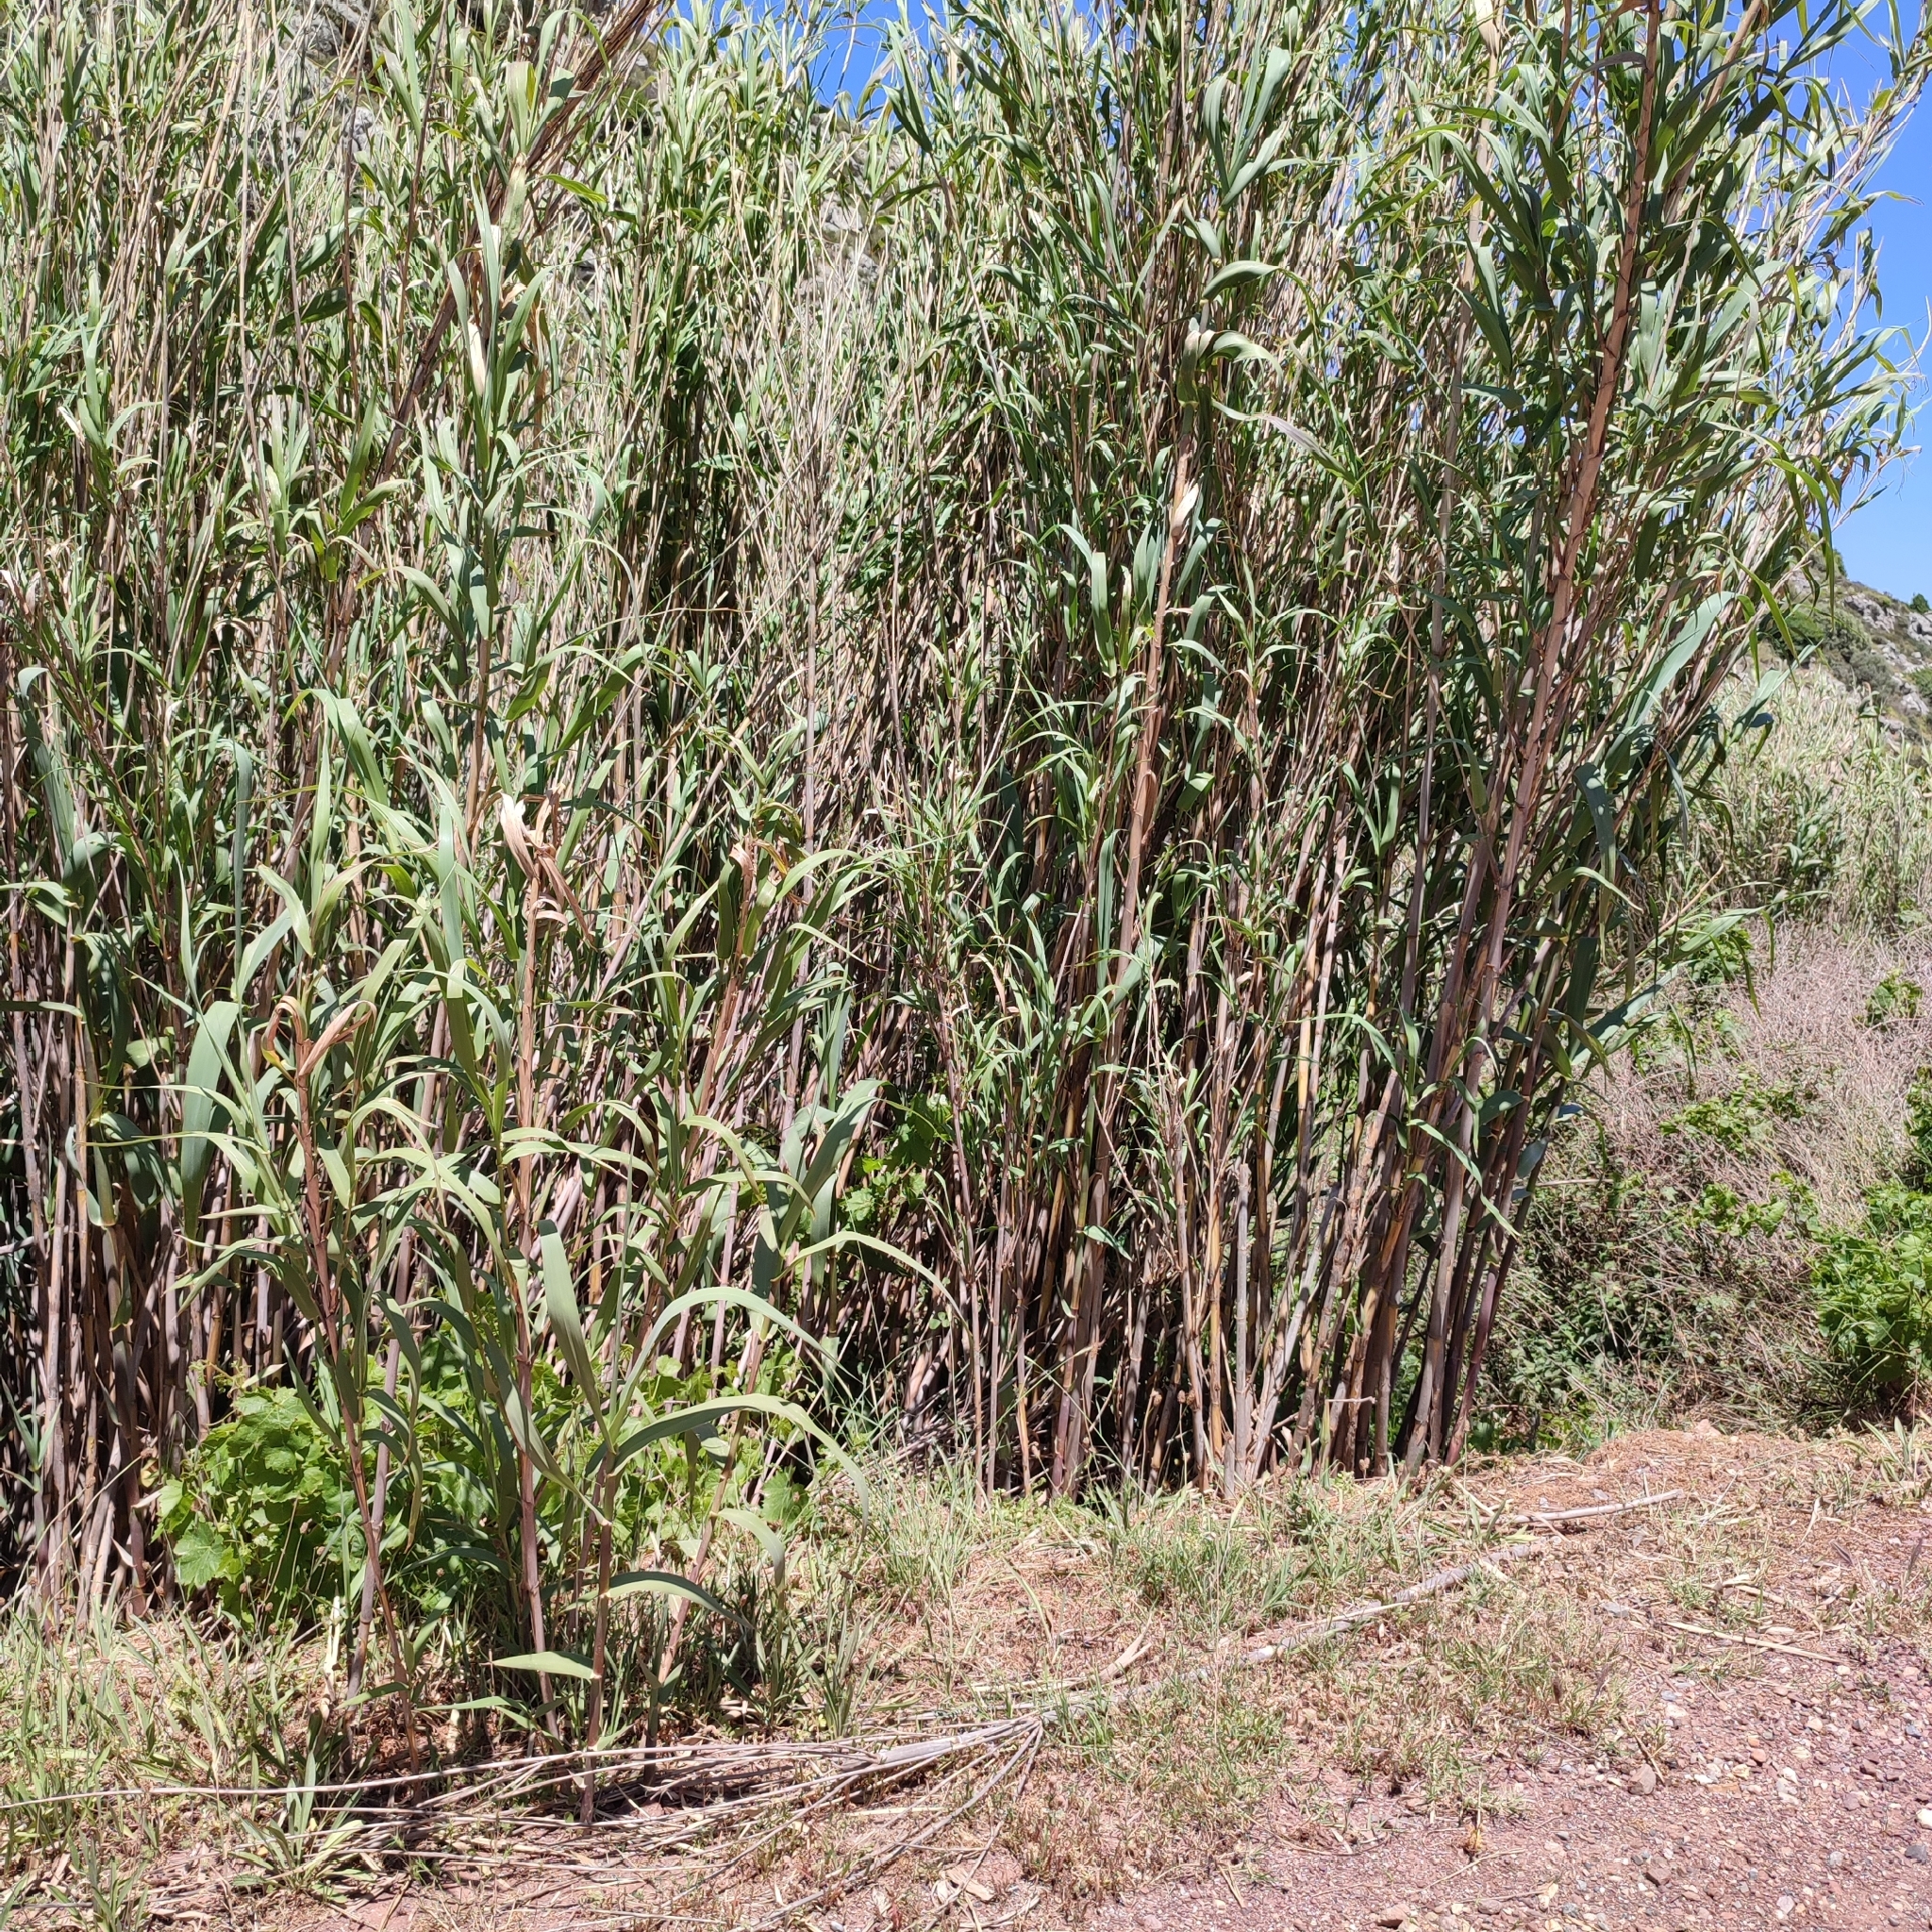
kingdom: Plantae
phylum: Tracheophyta
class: Liliopsida
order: Poales
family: Poaceae
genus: Arundo
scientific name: Arundo donax
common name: Giant reed
